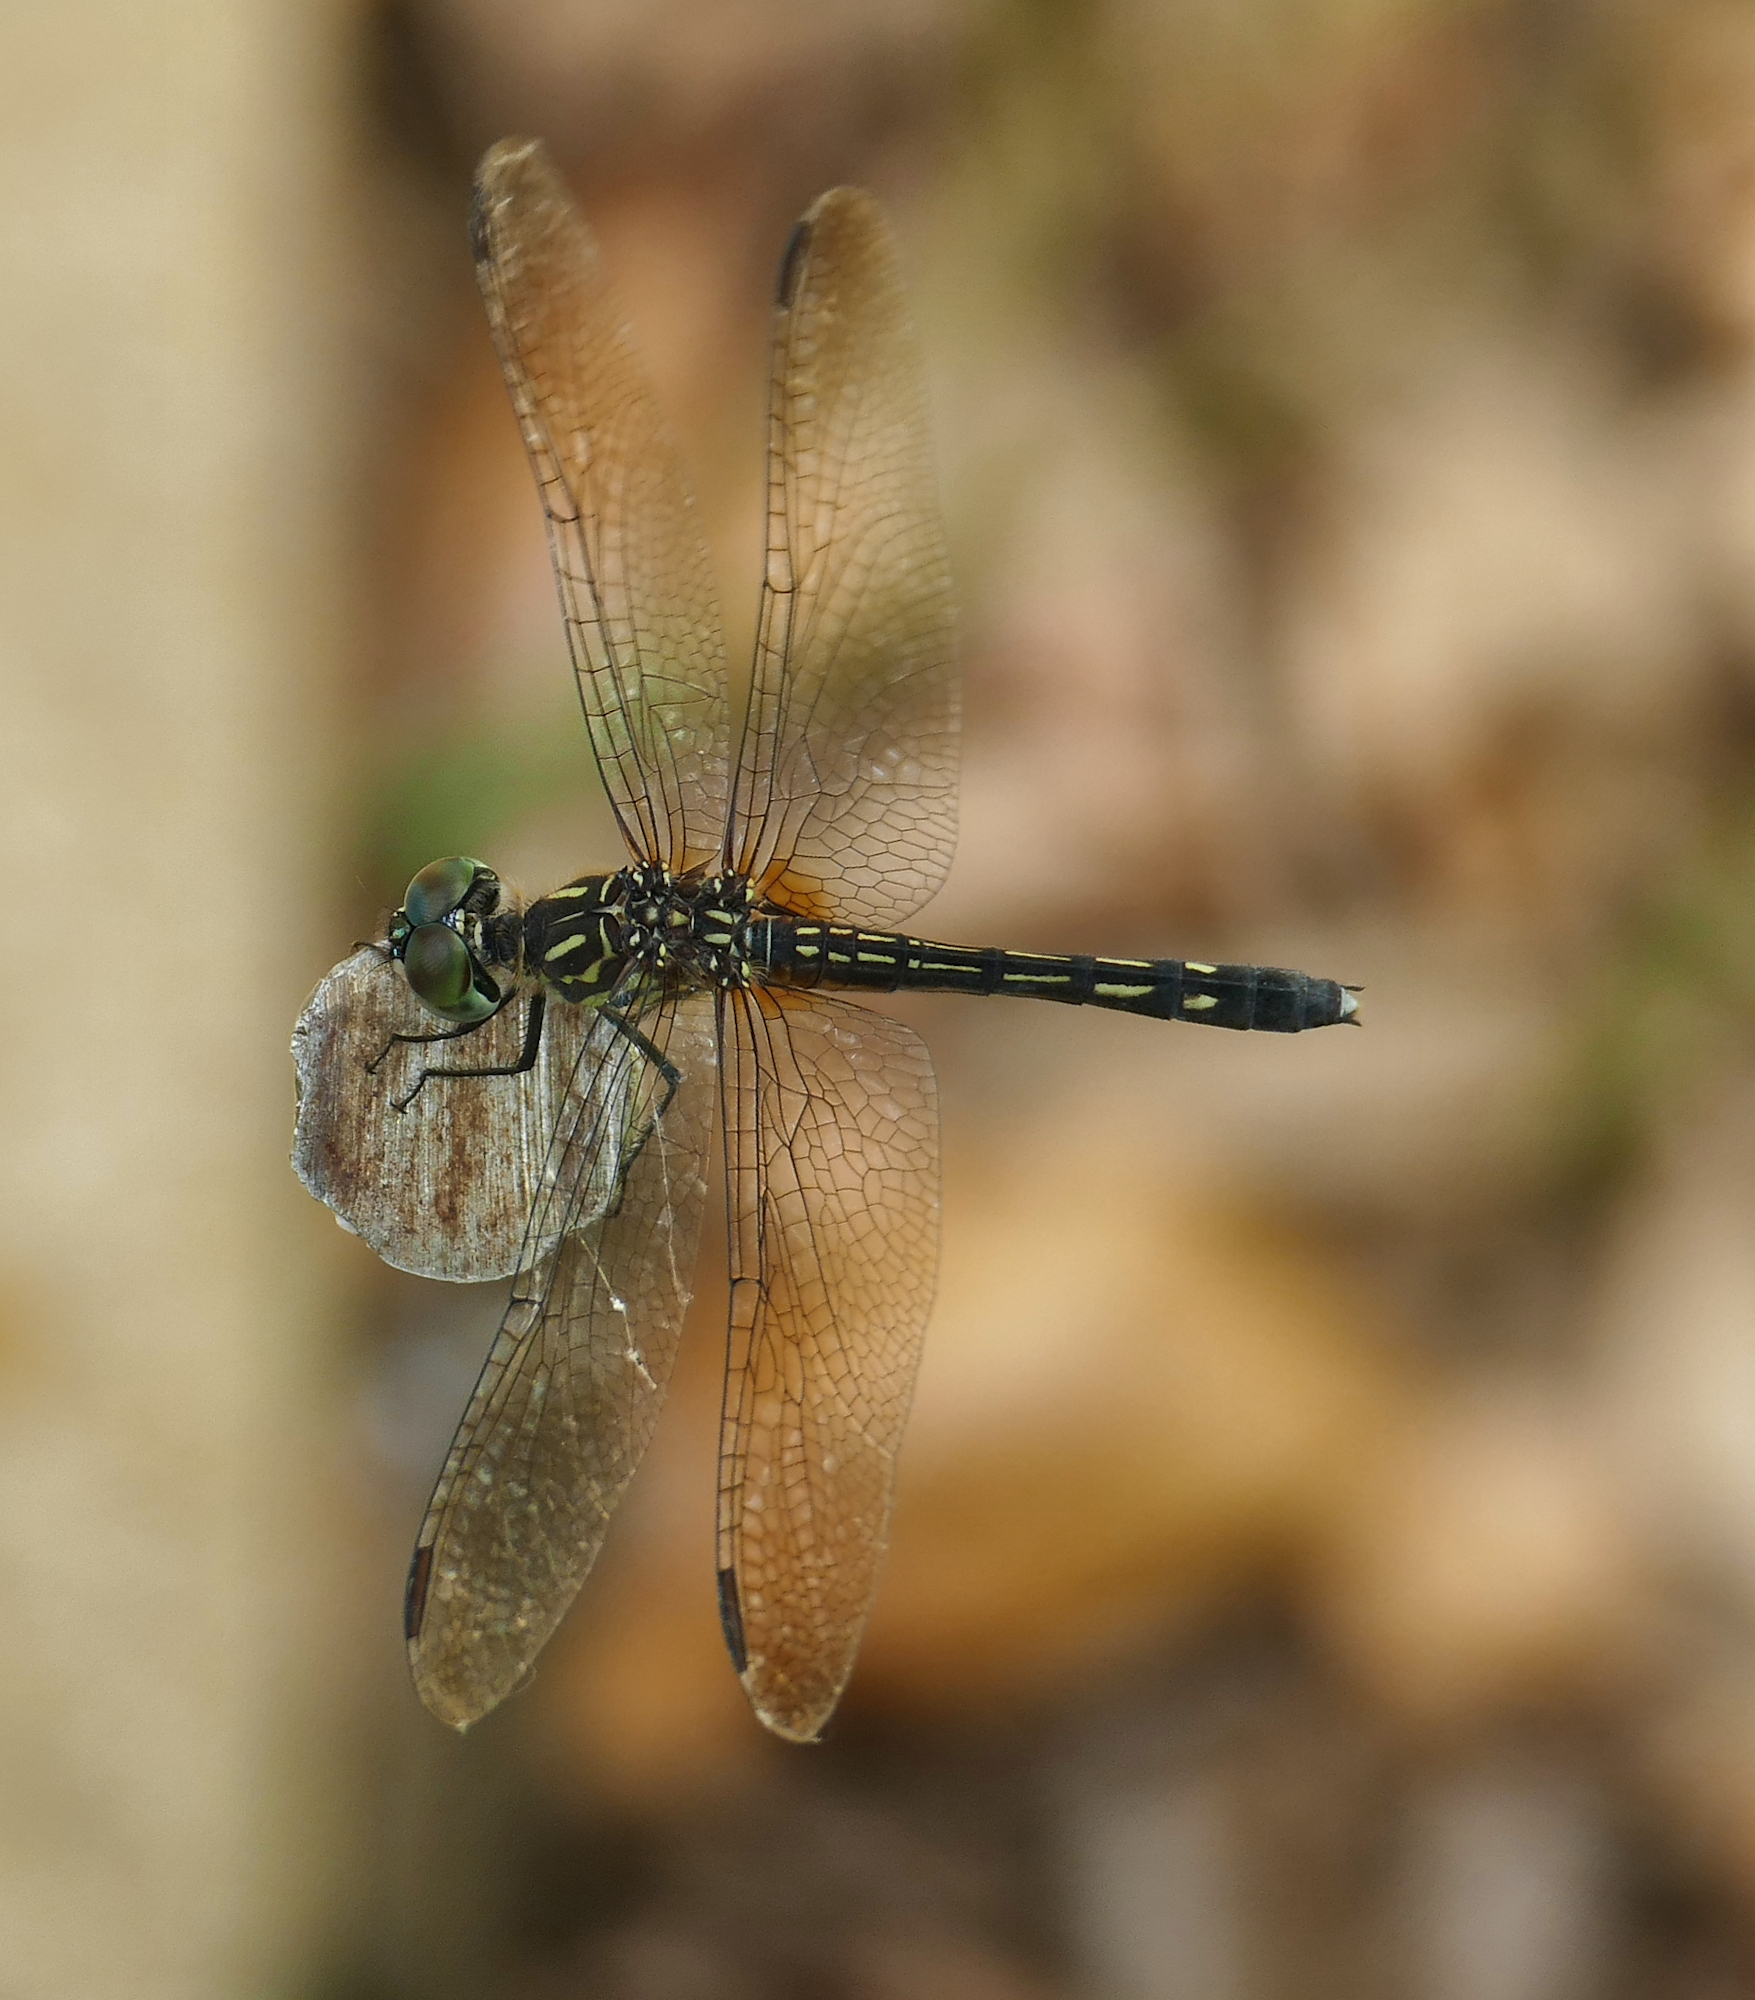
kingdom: Animalia
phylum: Arthropoda
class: Insecta
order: Odonata
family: Libellulidae
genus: Pachydiplax
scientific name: Pachydiplax longipennis
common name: Blue dasher
